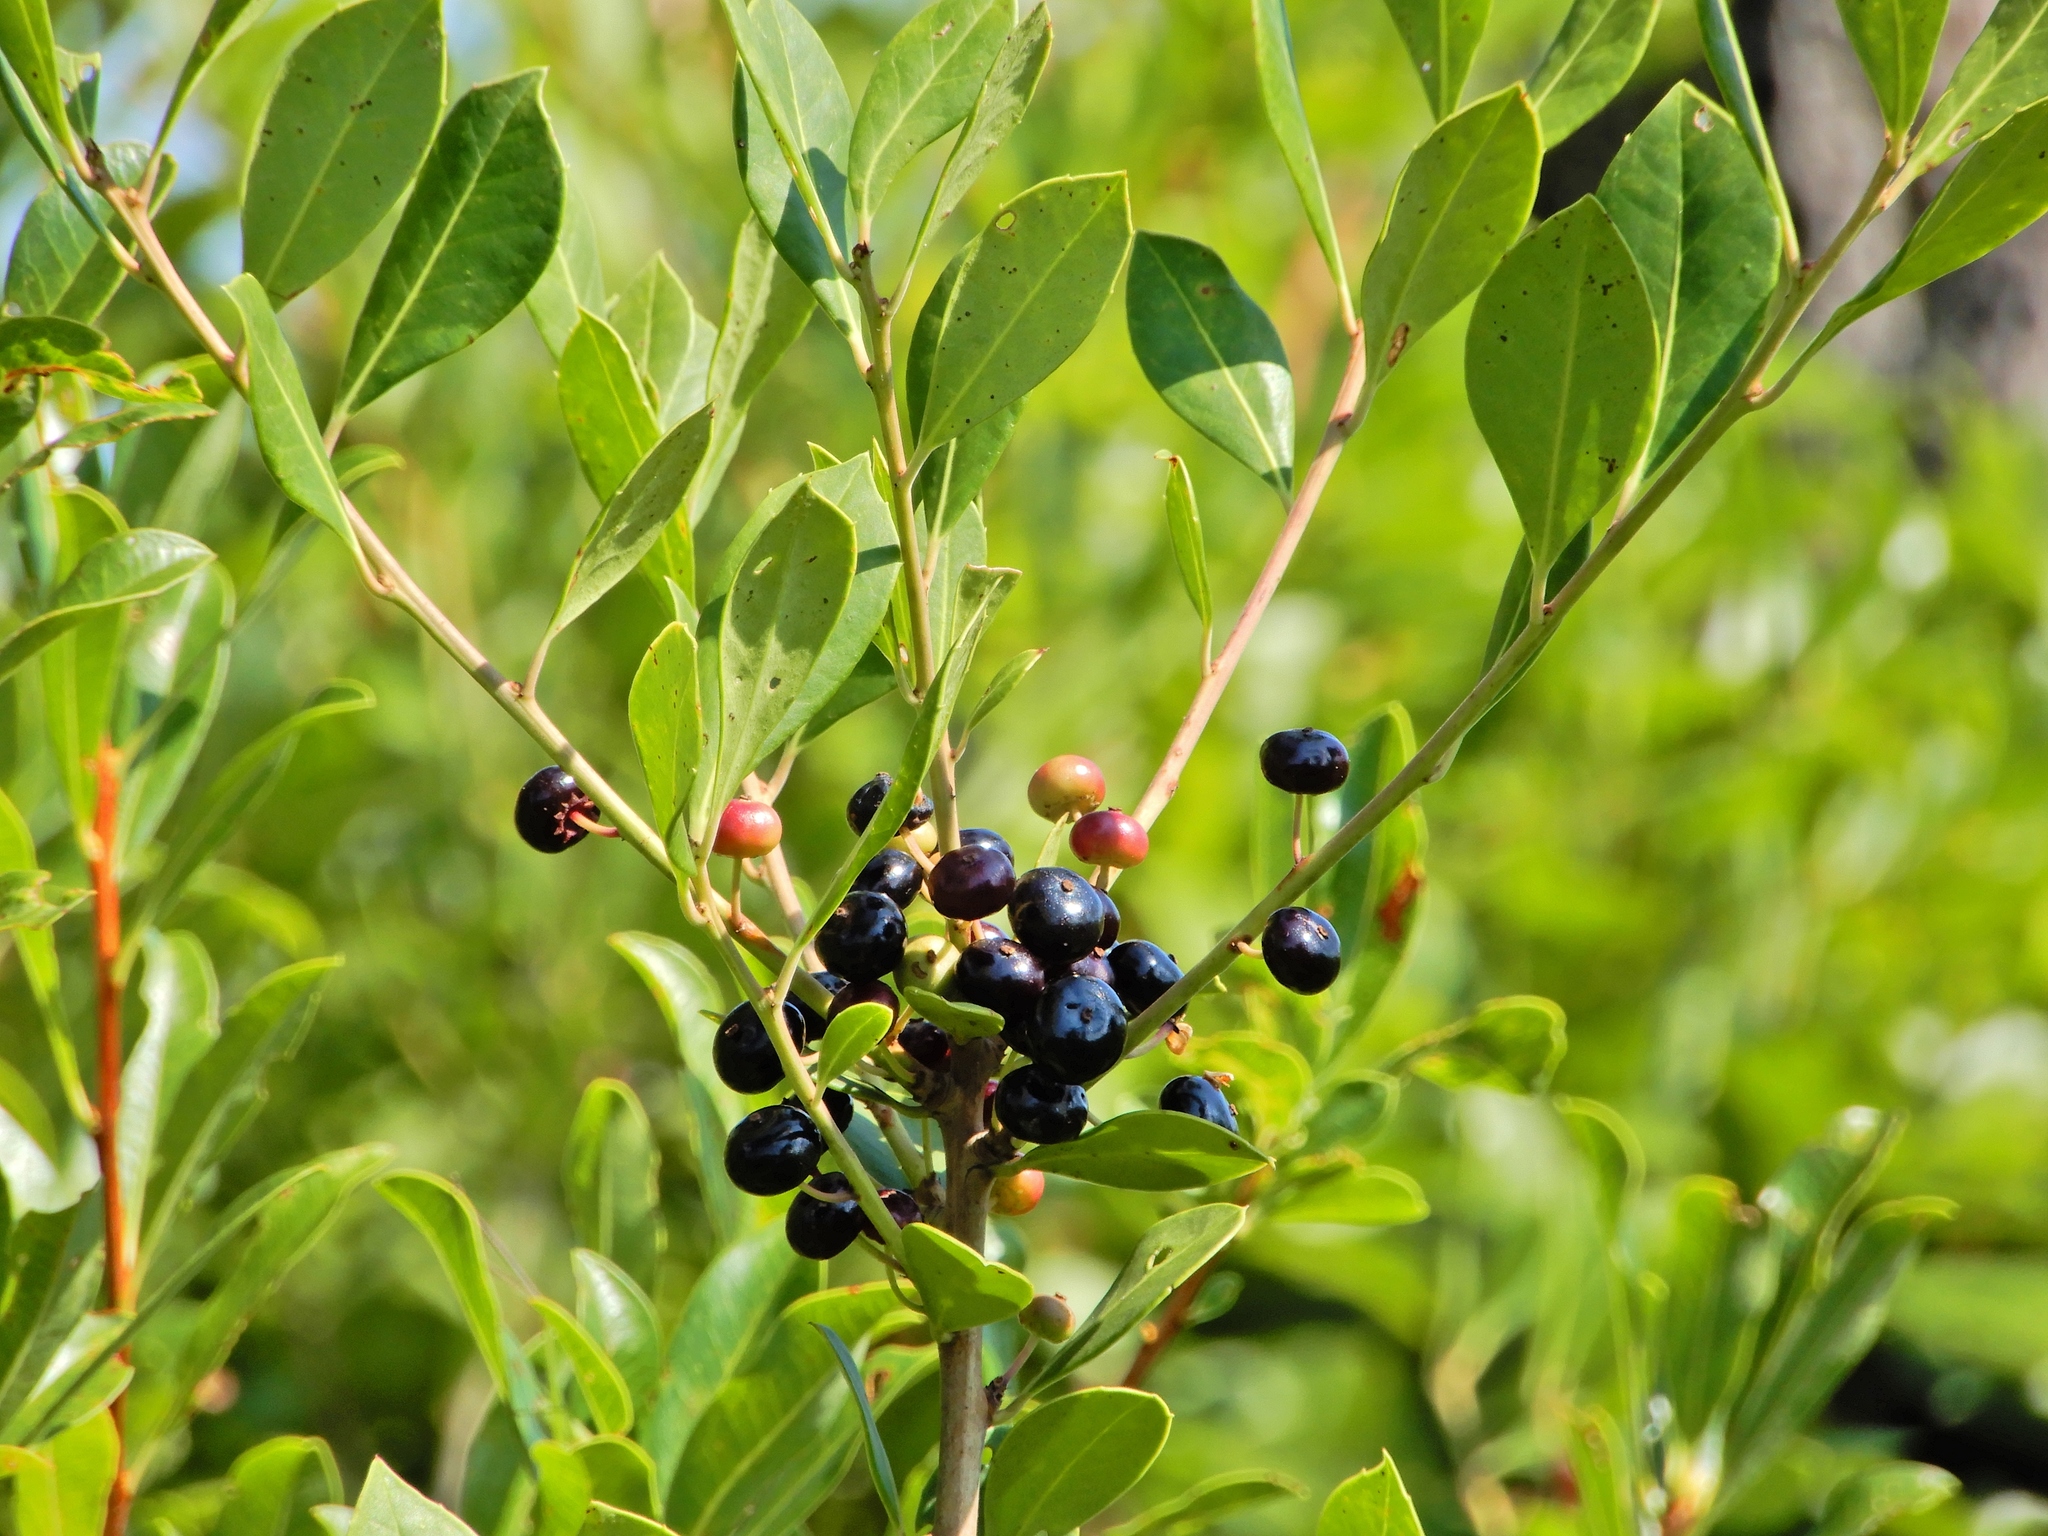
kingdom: Plantae
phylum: Tracheophyta
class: Magnoliopsida
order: Aquifoliales
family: Aquifoliaceae
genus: Ilex
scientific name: Ilex coriacea
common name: Sweet gallberry
